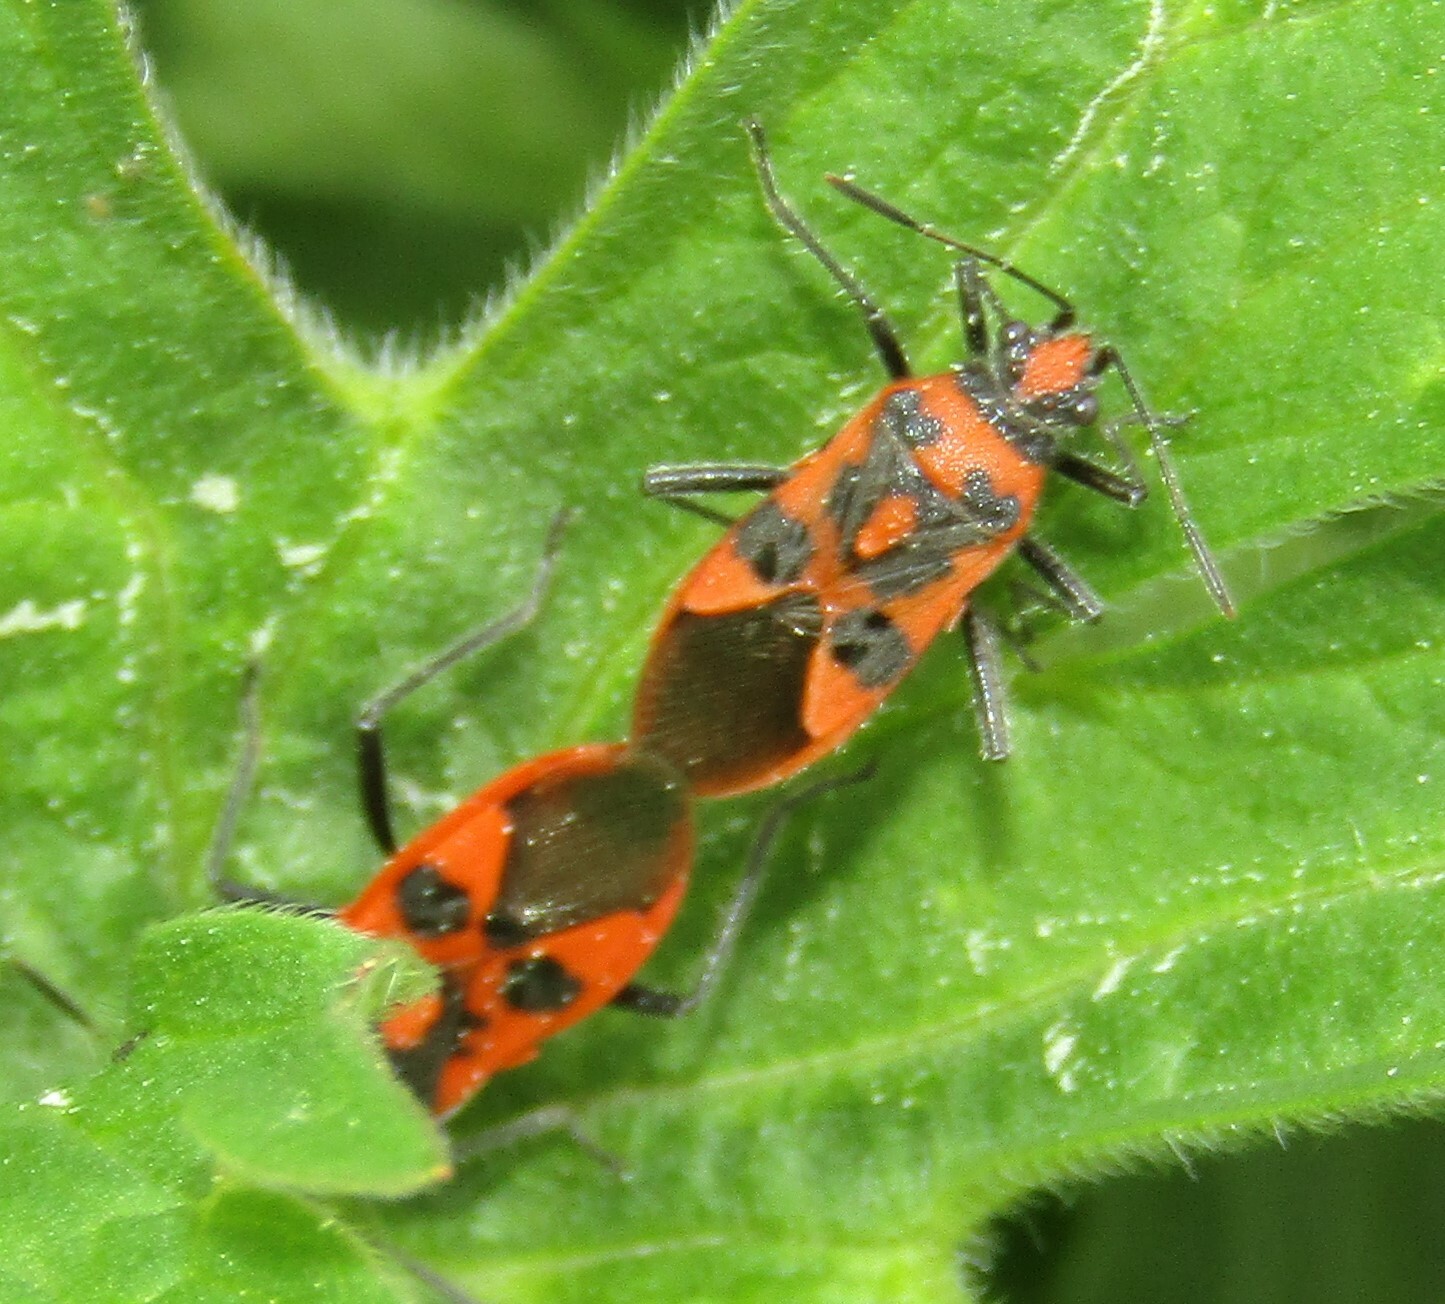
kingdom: Animalia
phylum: Arthropoda
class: Insecta
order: Hemiptera
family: Rhopalidae
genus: Corizus
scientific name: Corizus hyoscyami
